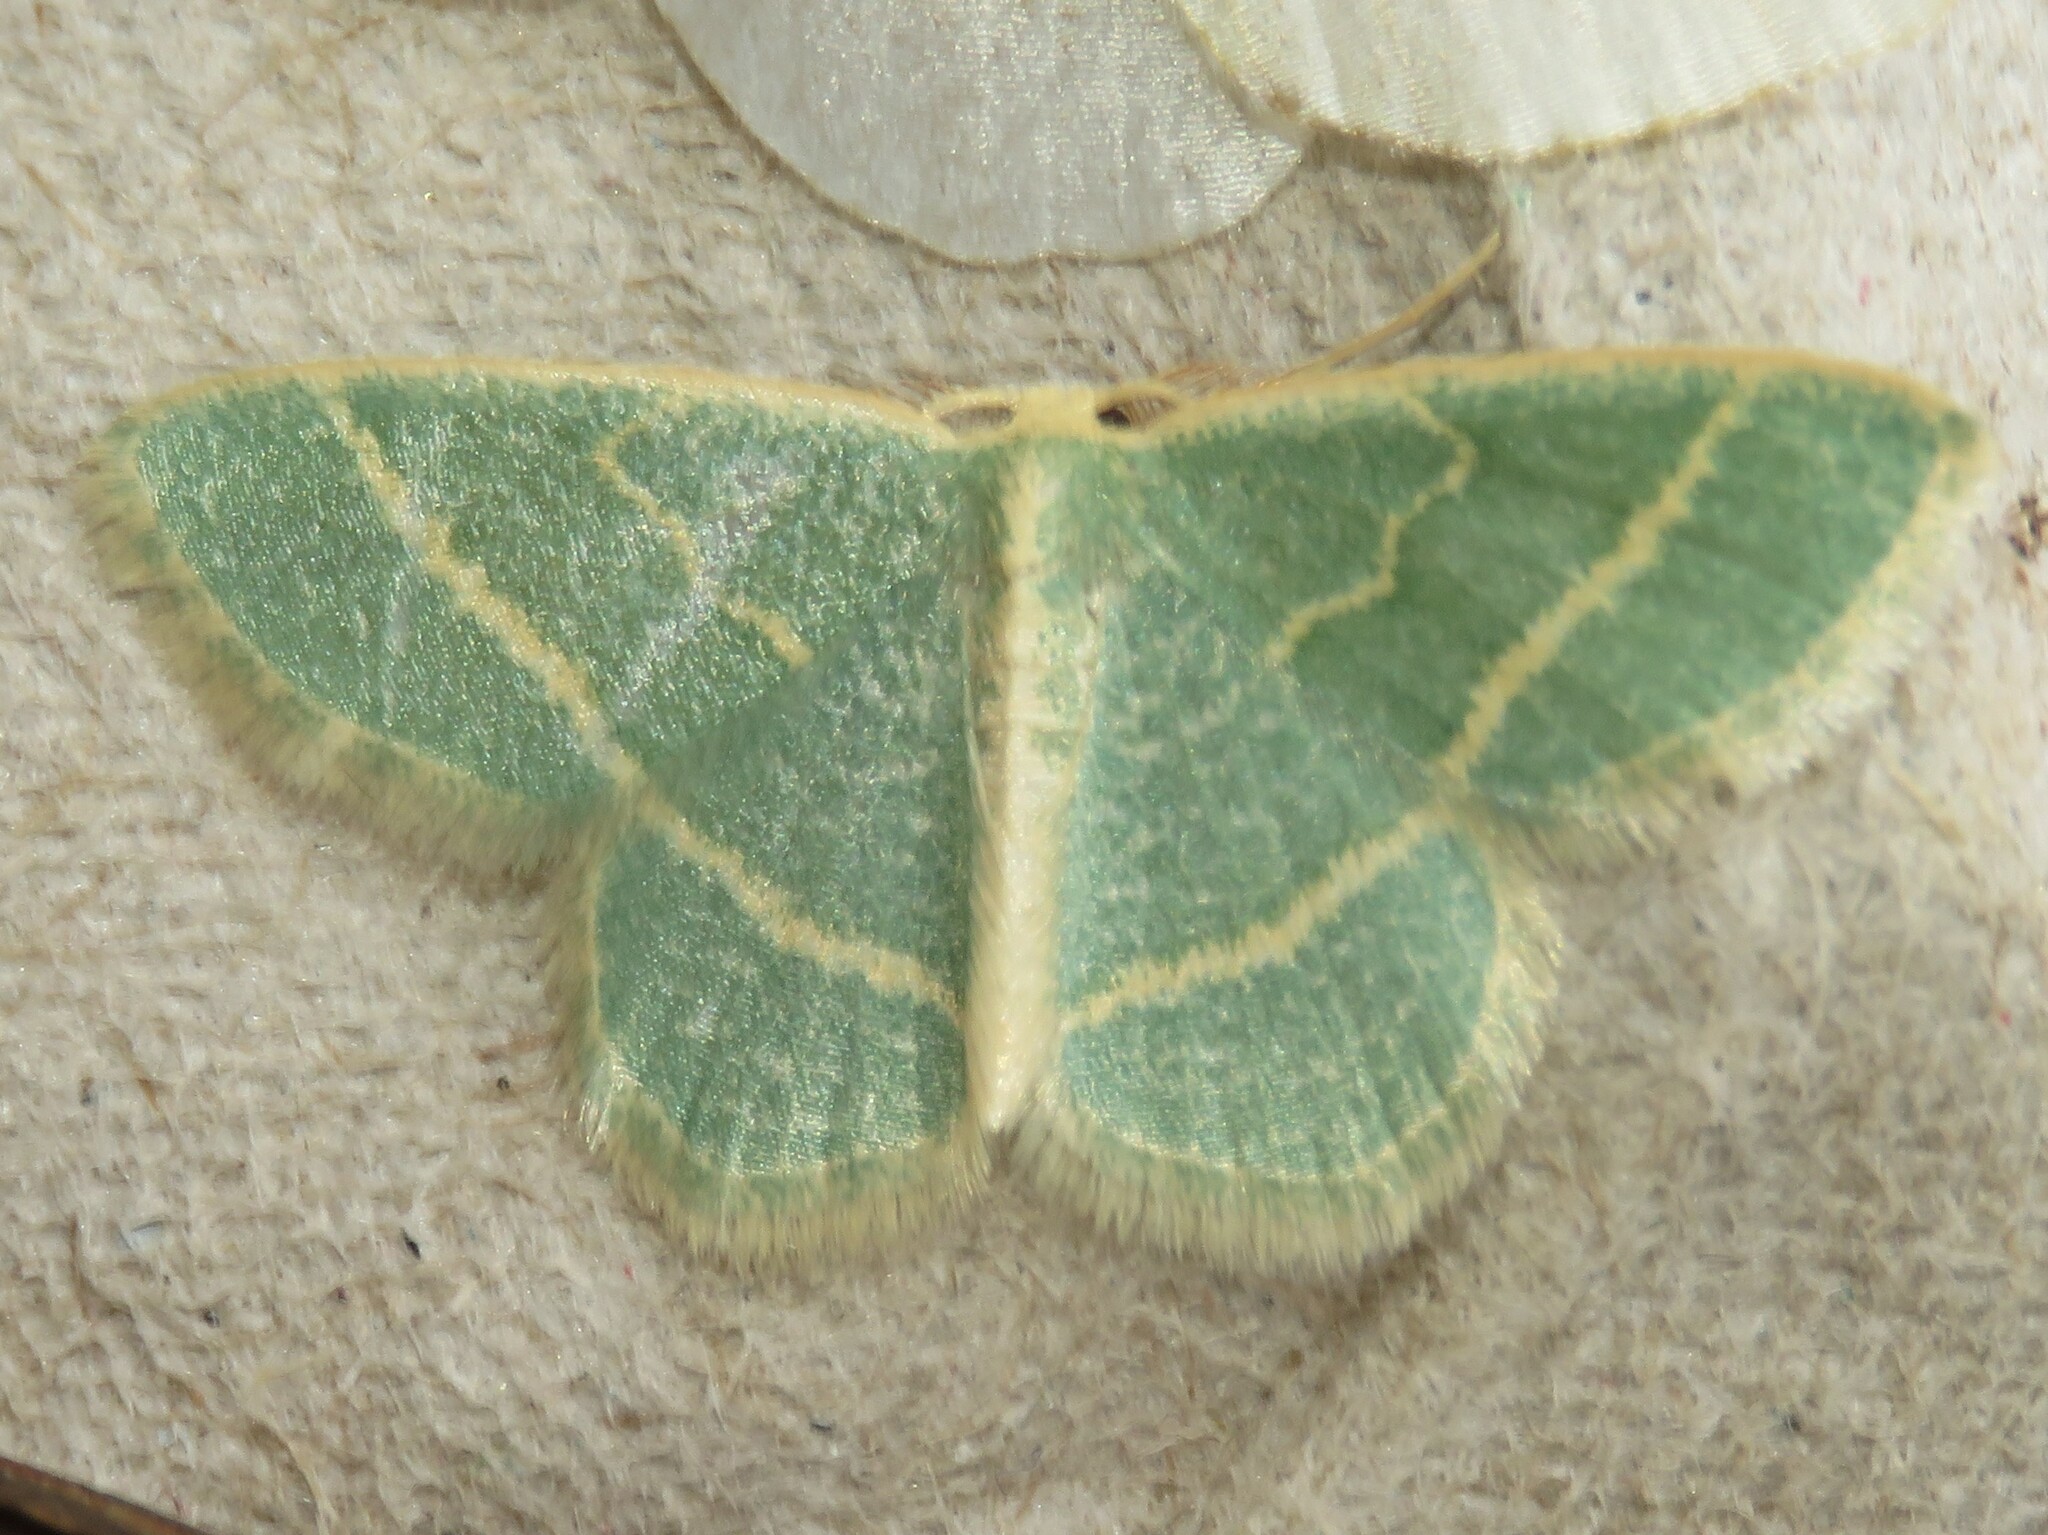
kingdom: Animalia
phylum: Arthropoda
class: Insecta
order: Lepidoptera
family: Geometridae
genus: Chlorochlamys
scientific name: Chlorochlamys chloroleucaria
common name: Blackberry looper
